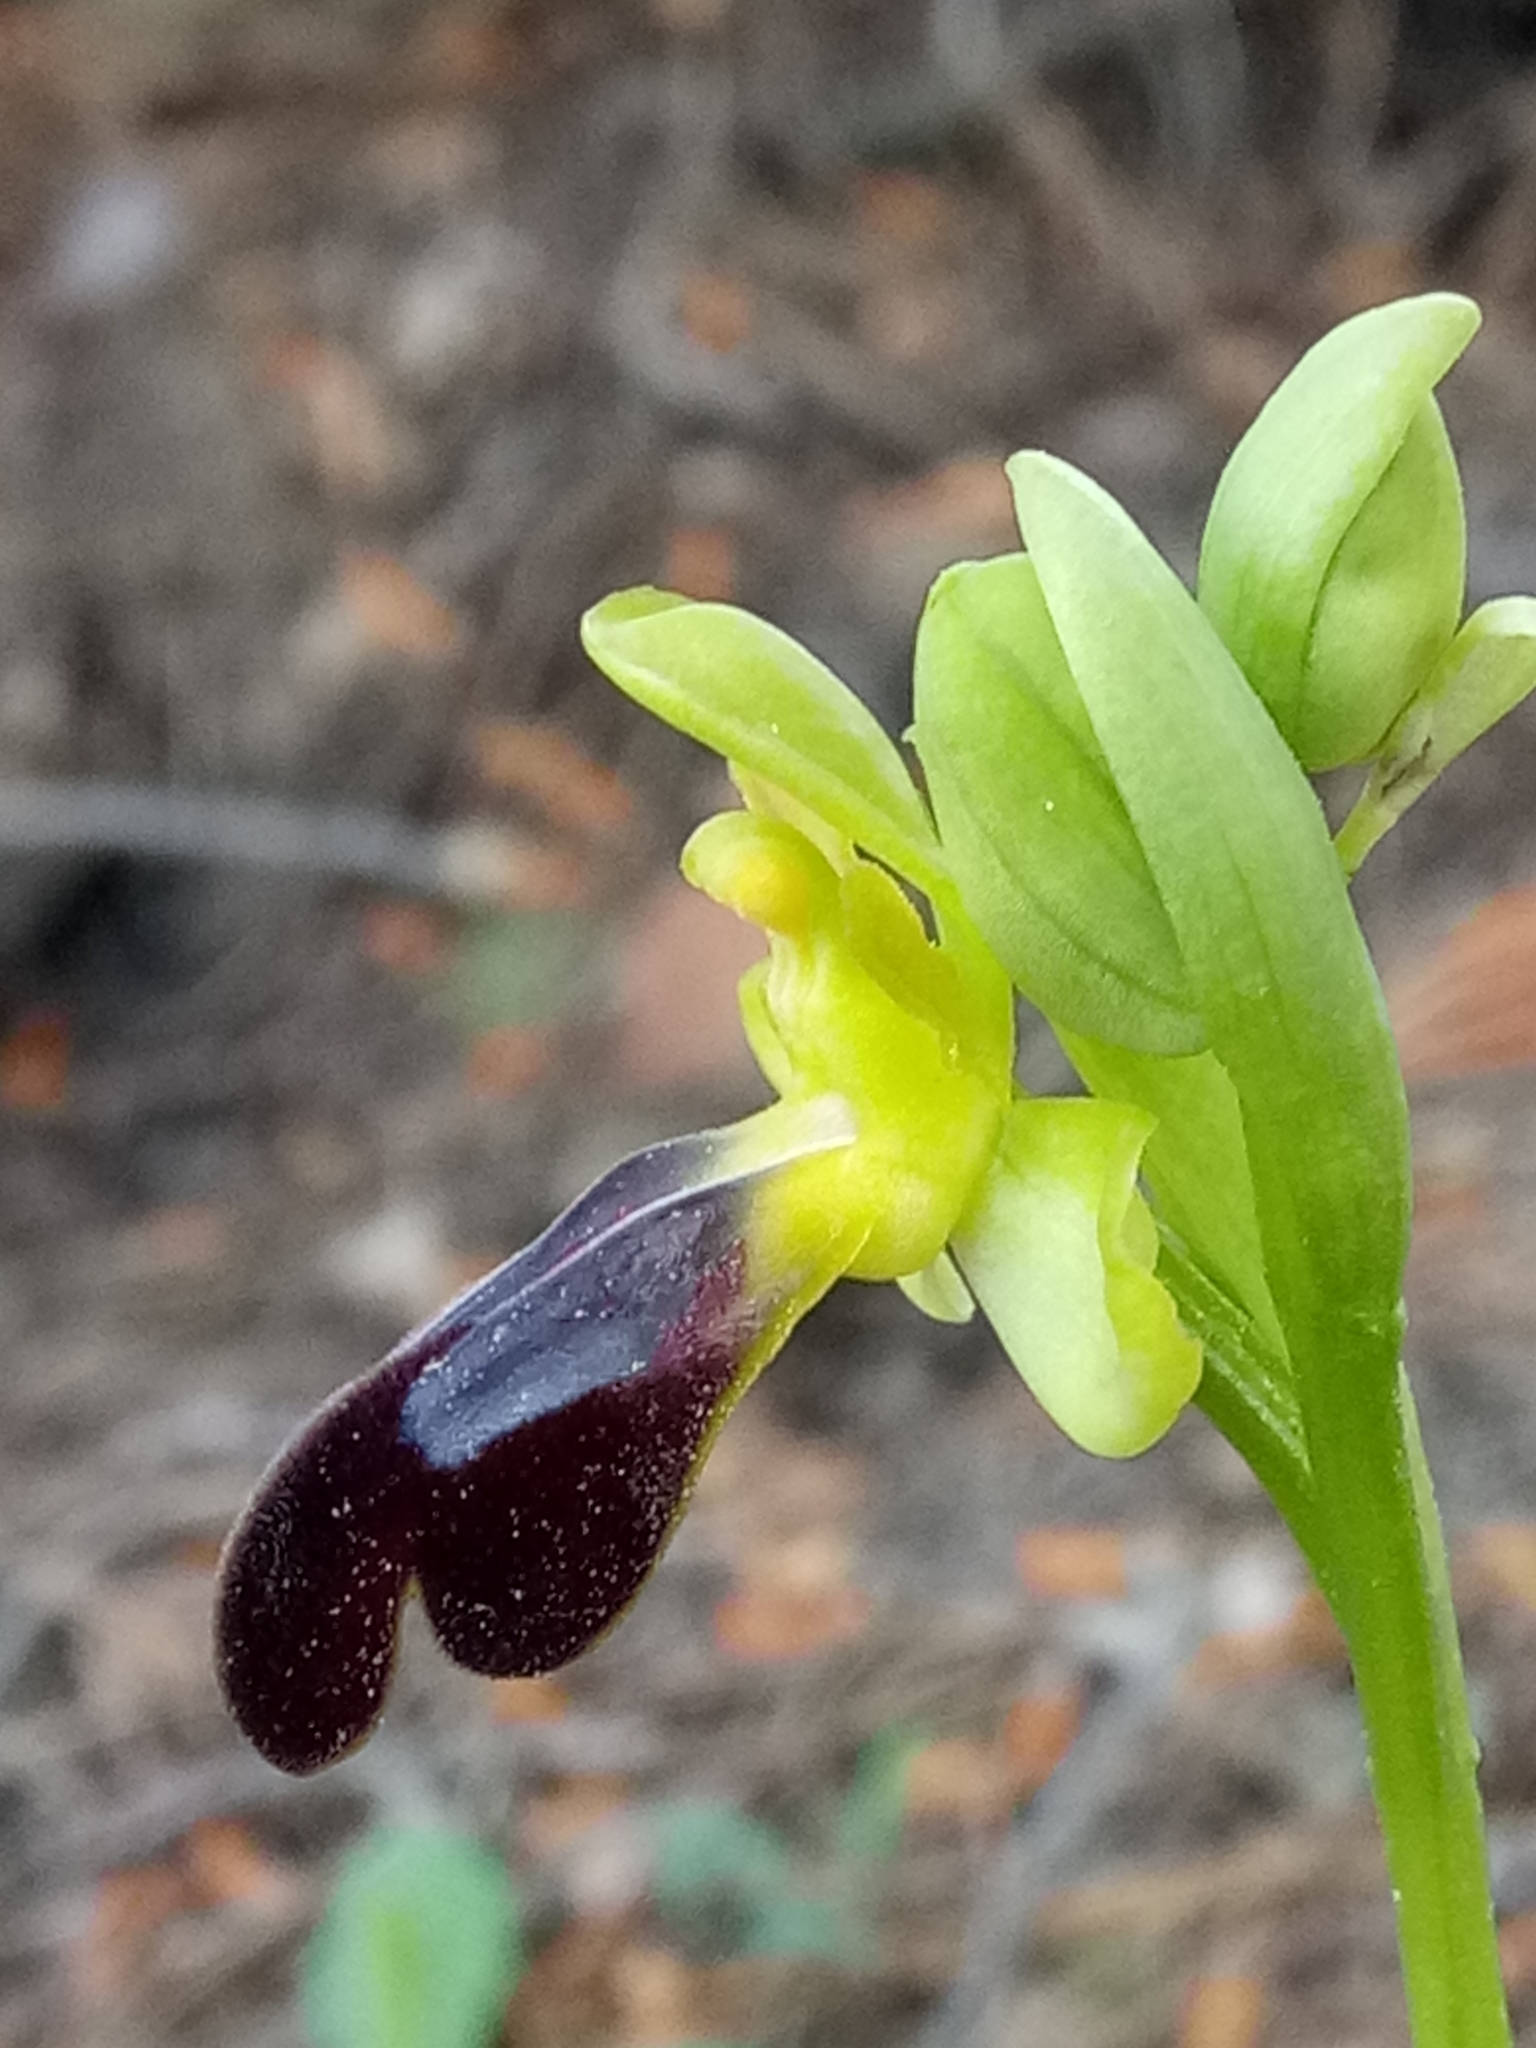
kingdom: Plantae
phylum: Tracheophyta
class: Liliopsida
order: Asparagales
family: Orchidaceae
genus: Ophrys
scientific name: Ophrys fusca
